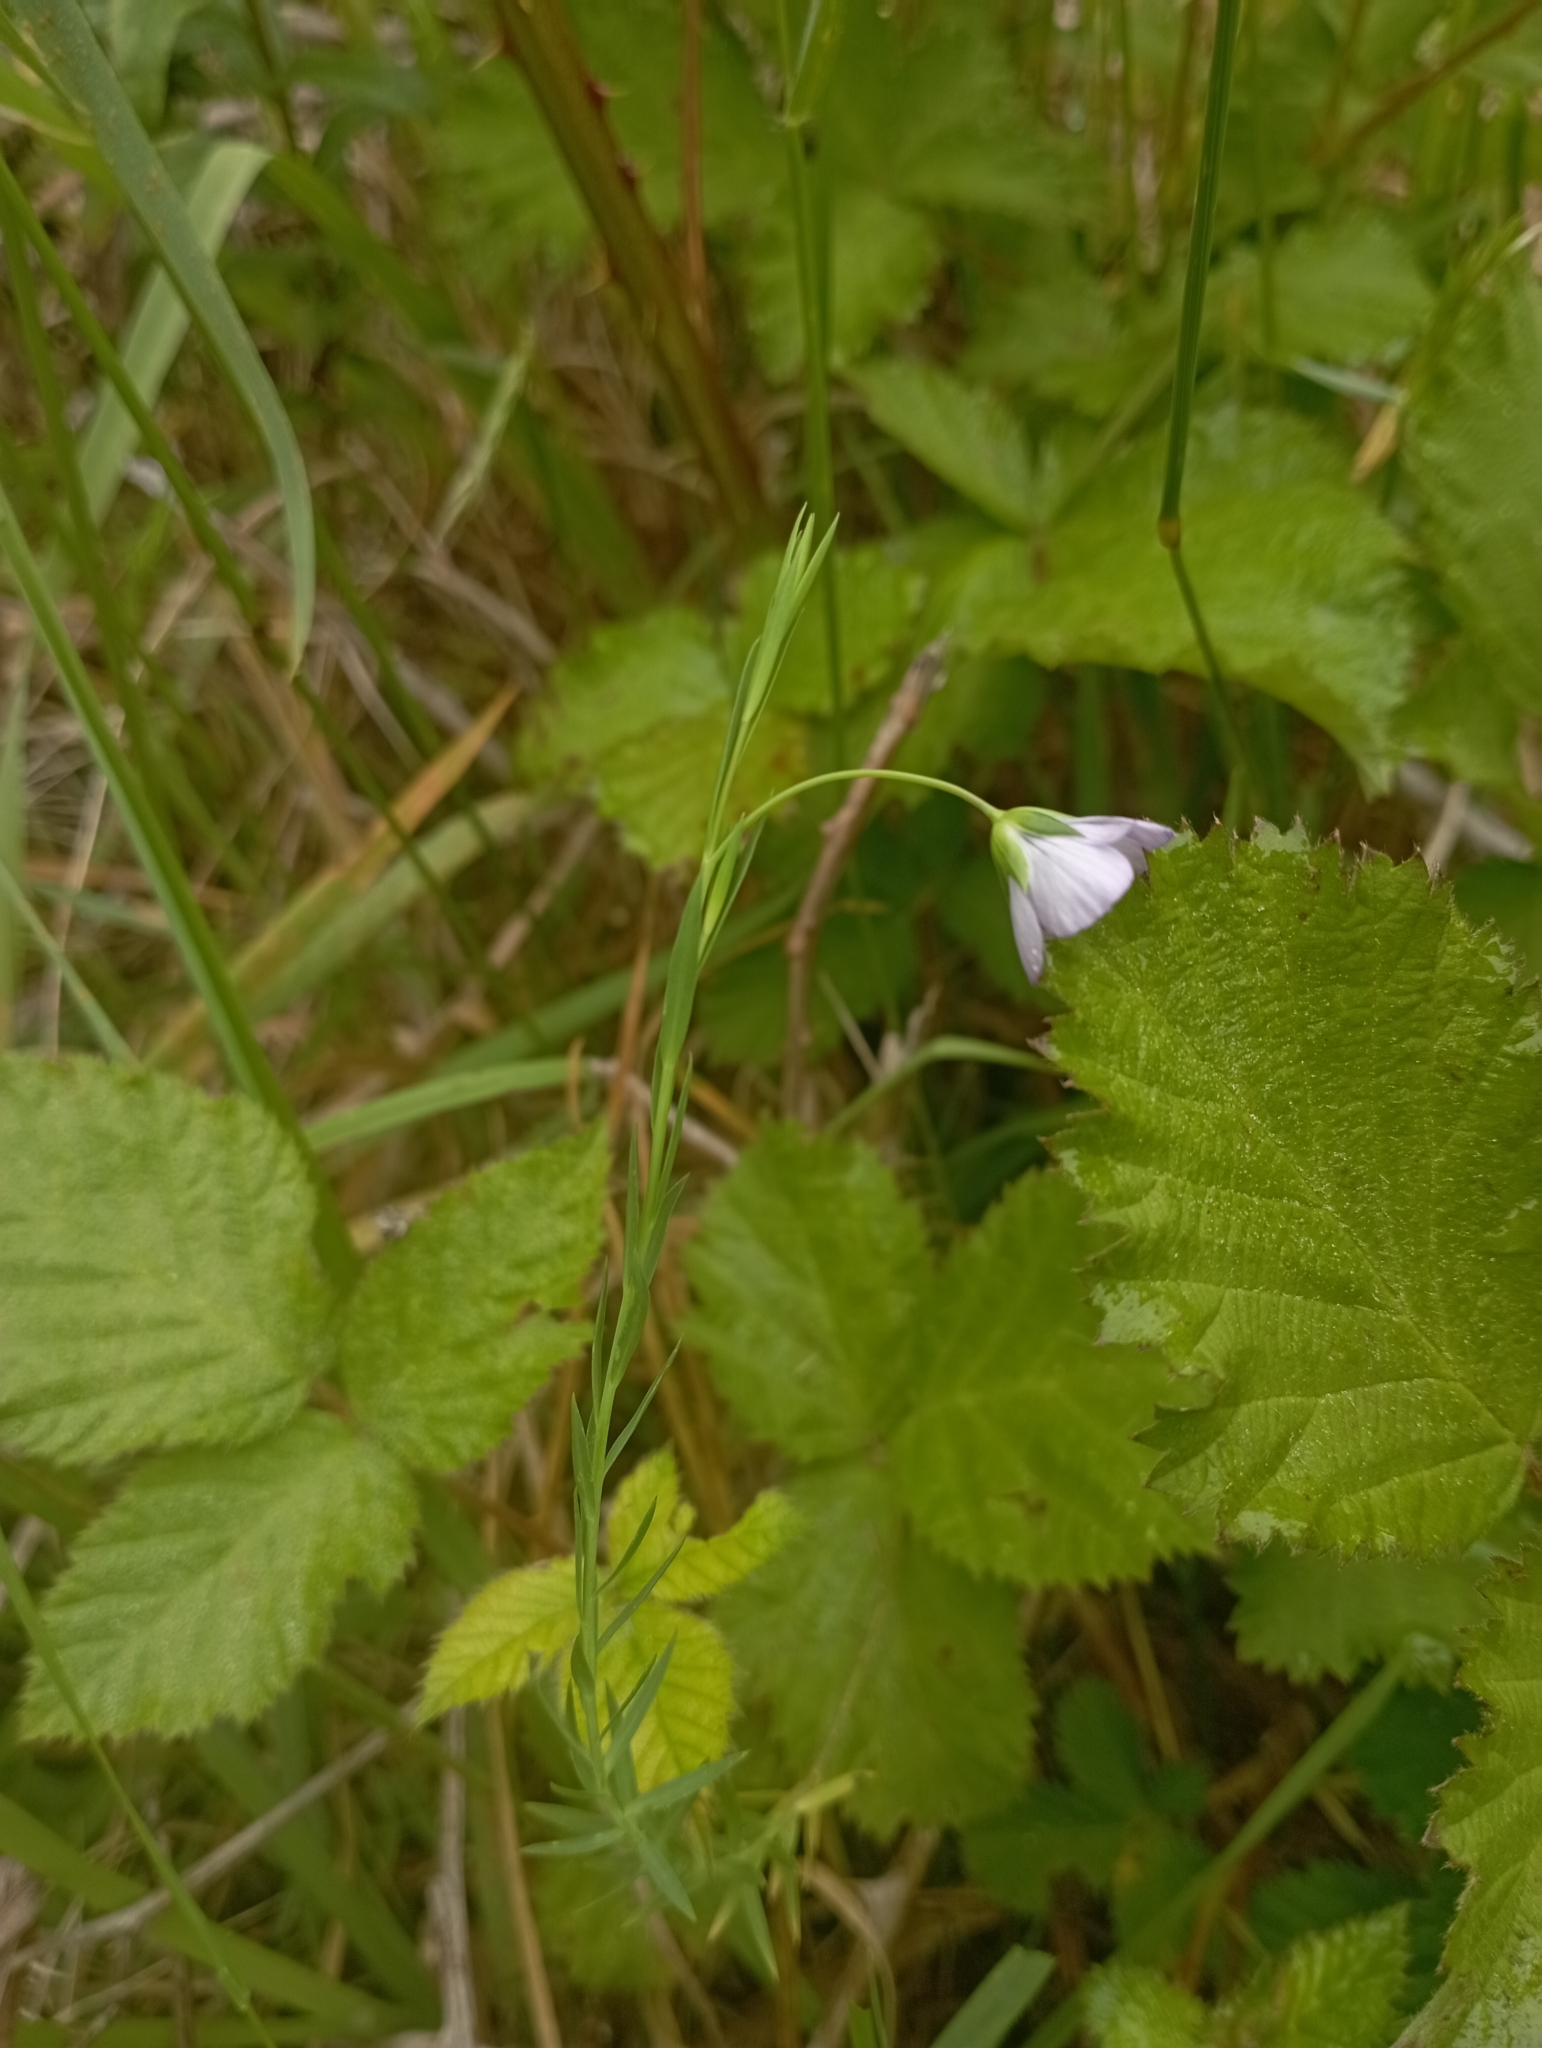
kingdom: Plantae
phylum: Tracheophyta
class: Magnoliopsida
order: Malpighiales
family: Linaceae
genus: Linum
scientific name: Linum bienne
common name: Pale flax
